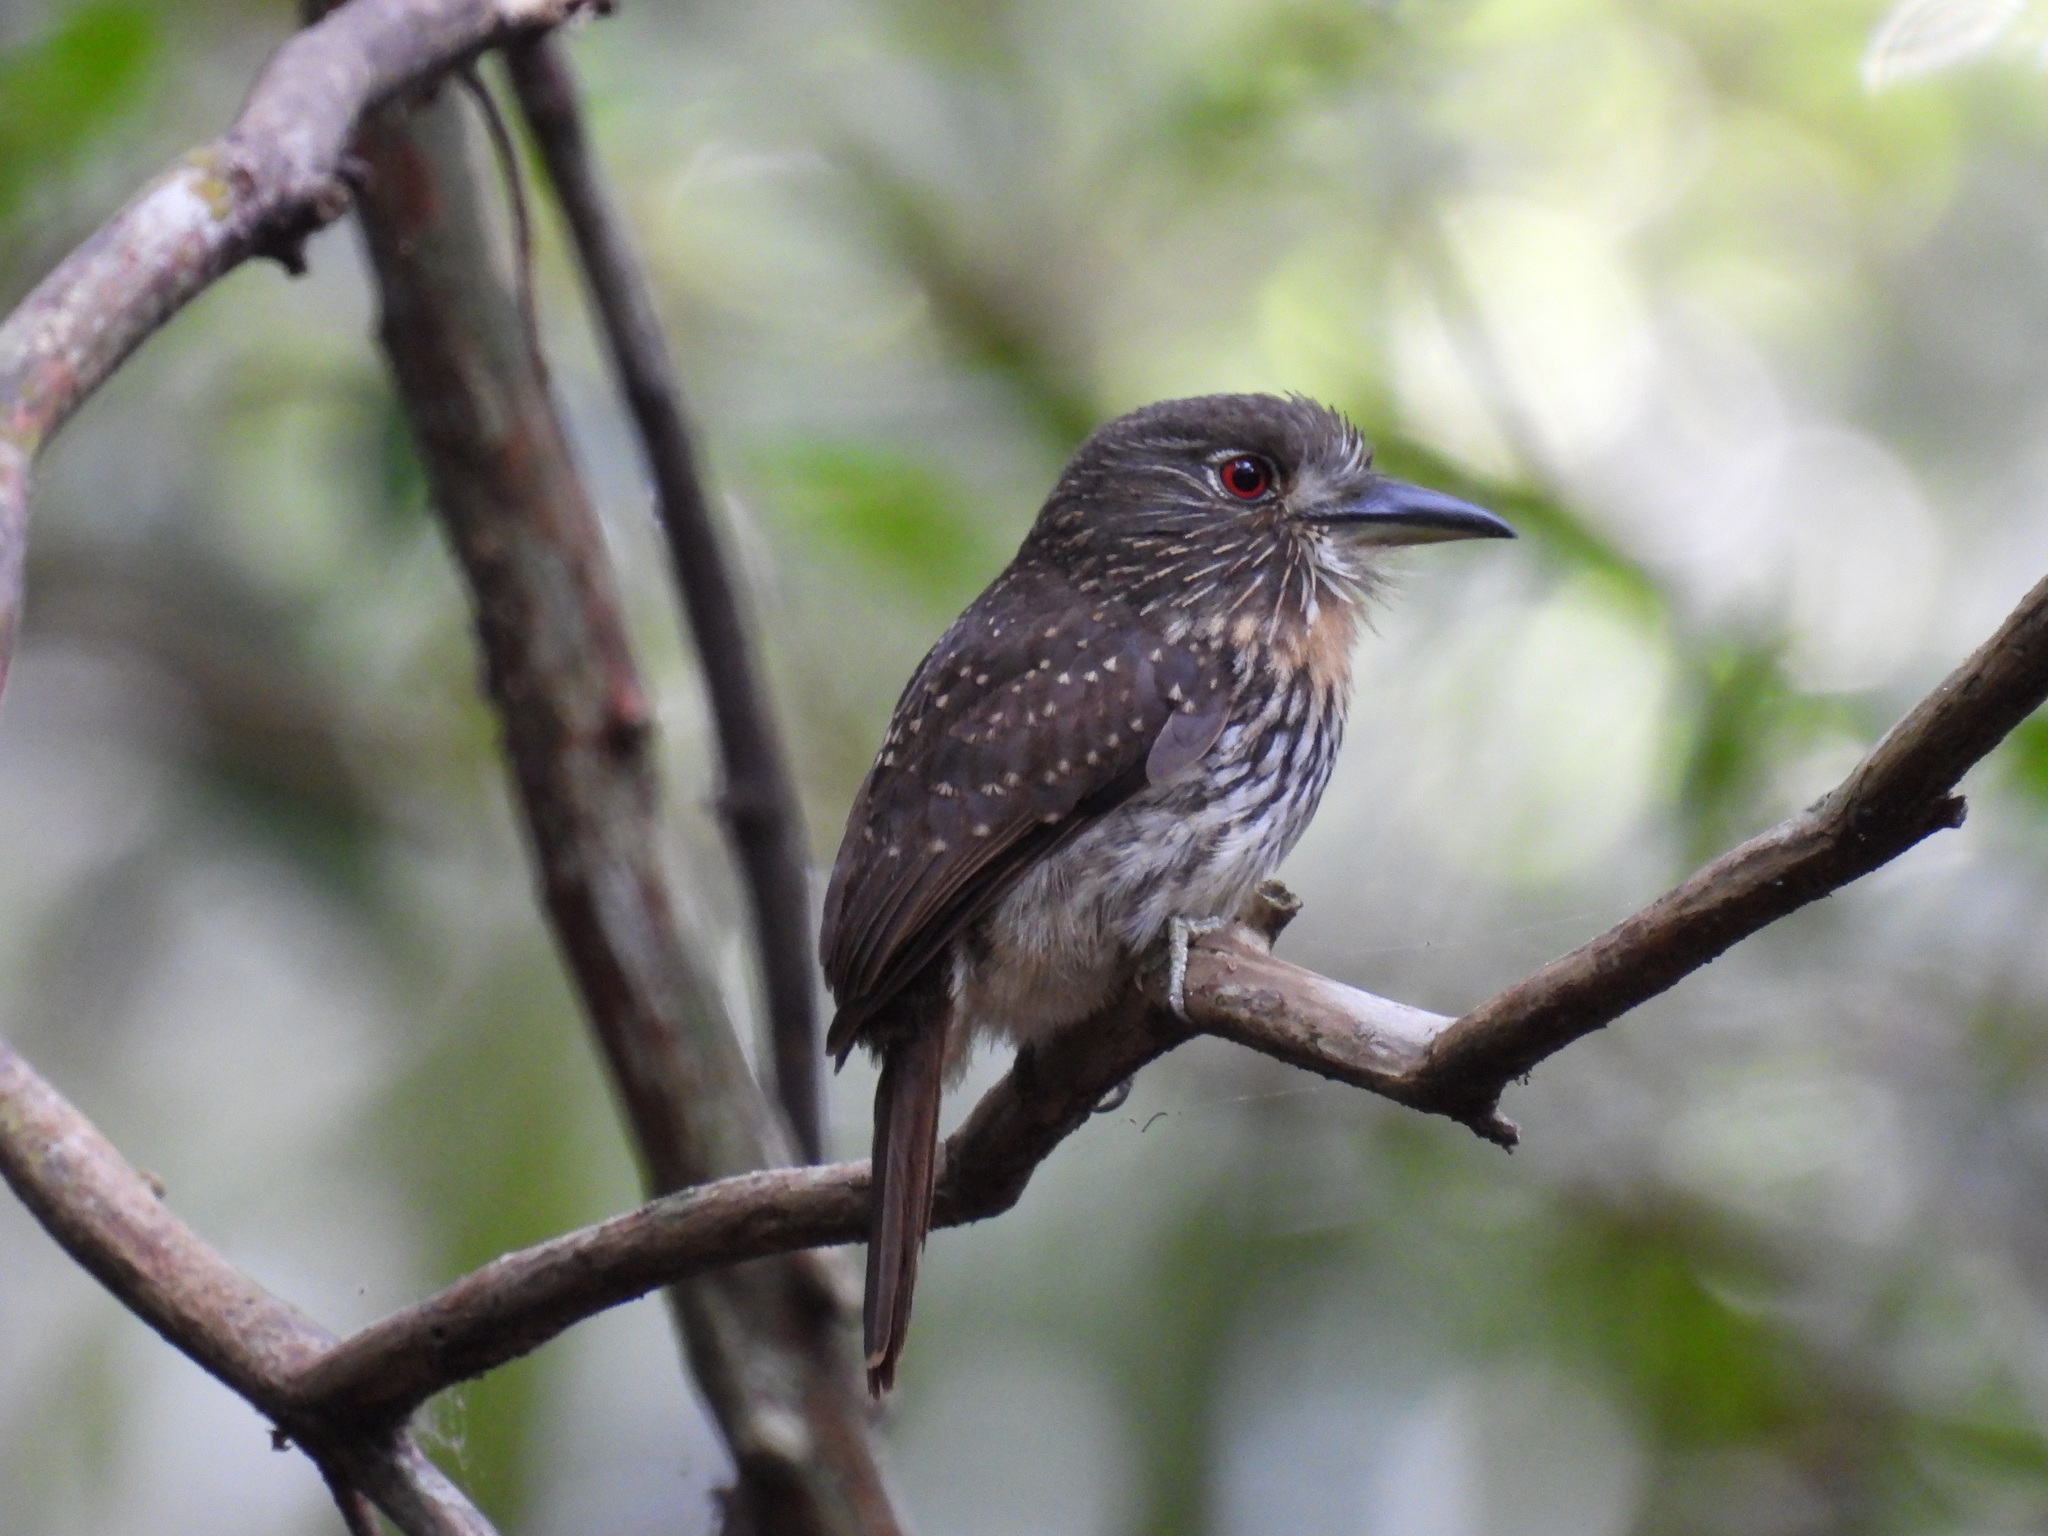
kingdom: Animalia
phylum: Chordata
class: Aves
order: Piciformes
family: Bucconidae
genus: Malacoptila
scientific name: Malacoptila panamensis
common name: White-whiskered puffbird
